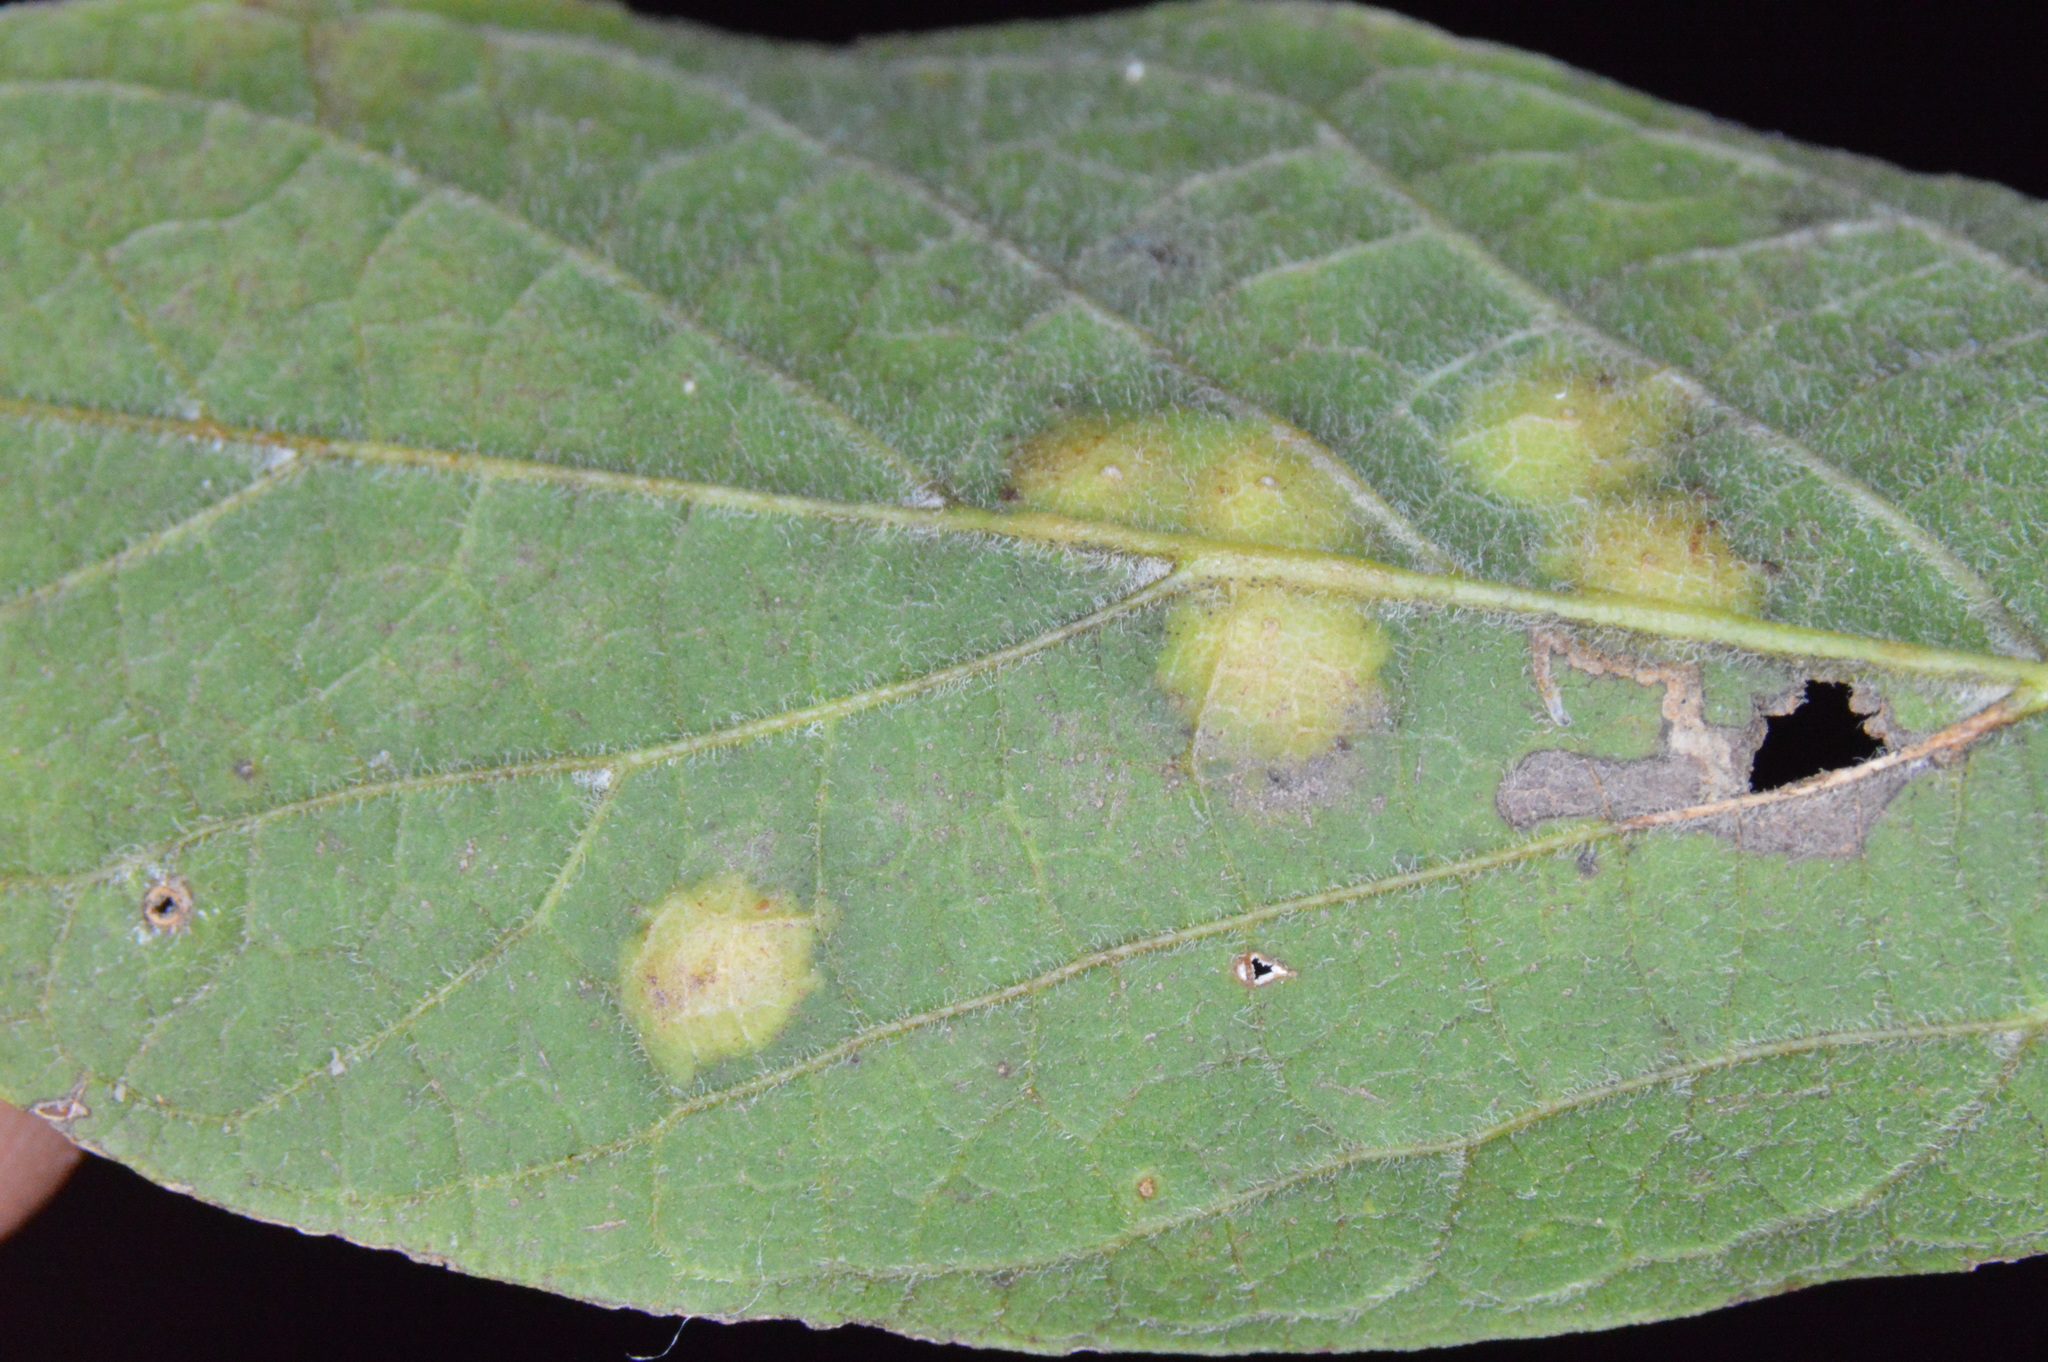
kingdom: Animalia
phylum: Arthropoda
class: Insecta
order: Hemiptera
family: Aphalaridae
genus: Pachypsylla
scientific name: Pachypsylla celtidisvesicula
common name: Hackberry blister gall psyllid
